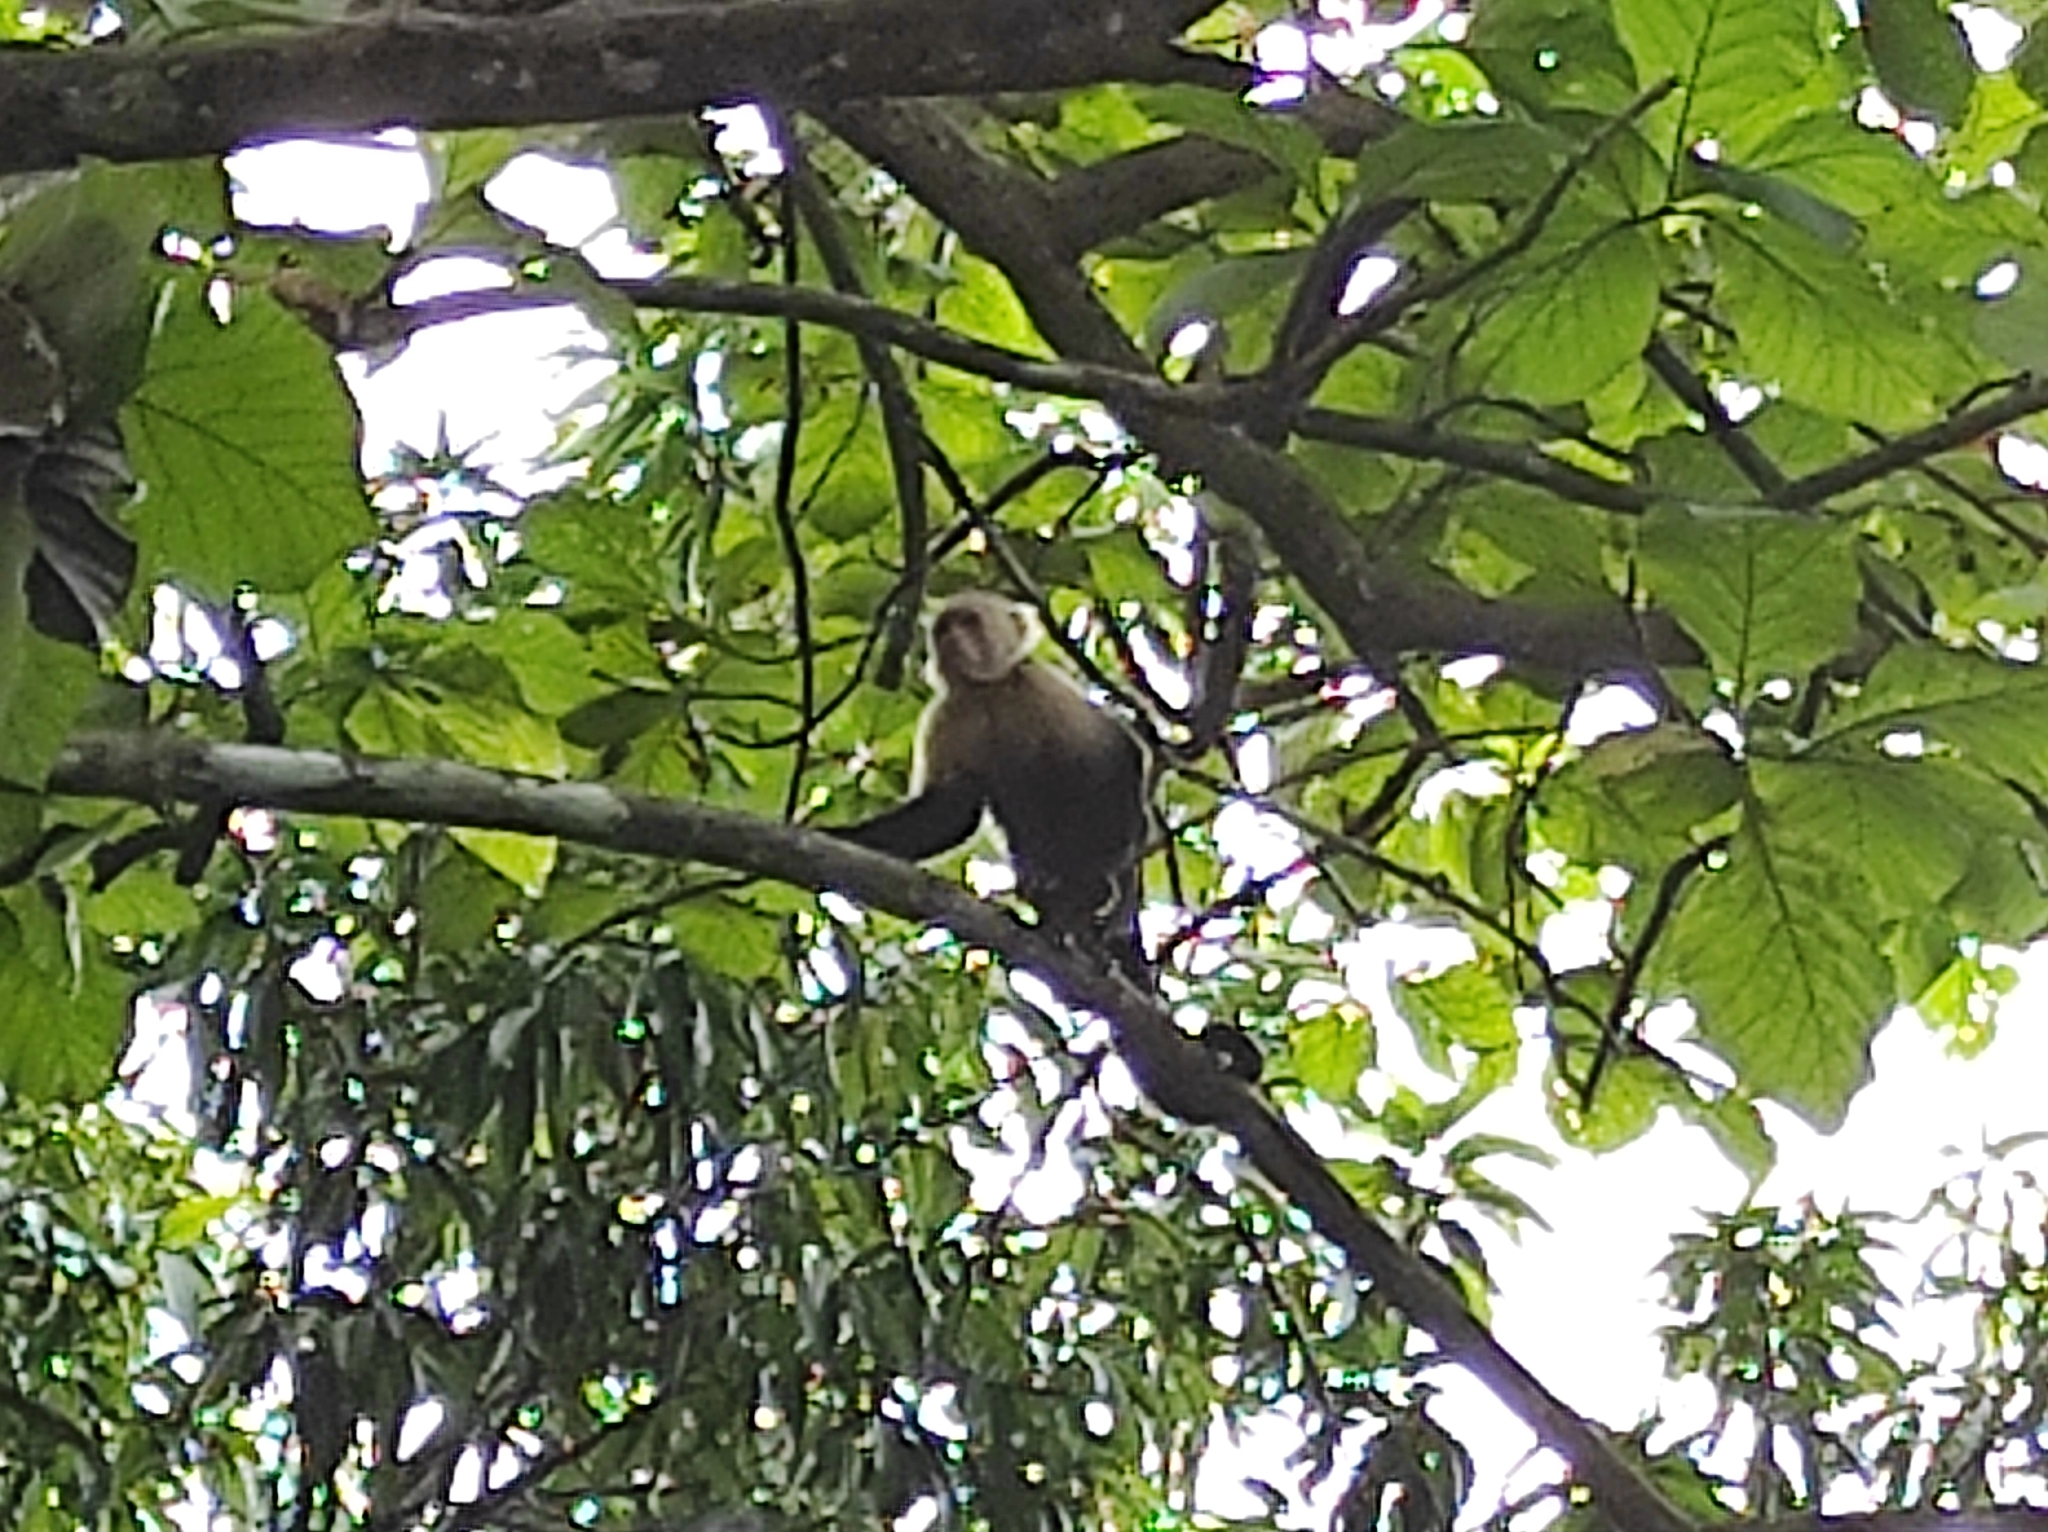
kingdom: Animalia
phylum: Chordata
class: Mammalia
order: Primates
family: Cebidae
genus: Cebus
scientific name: Cebus imitator
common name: Panamanian white-faced capuchin
